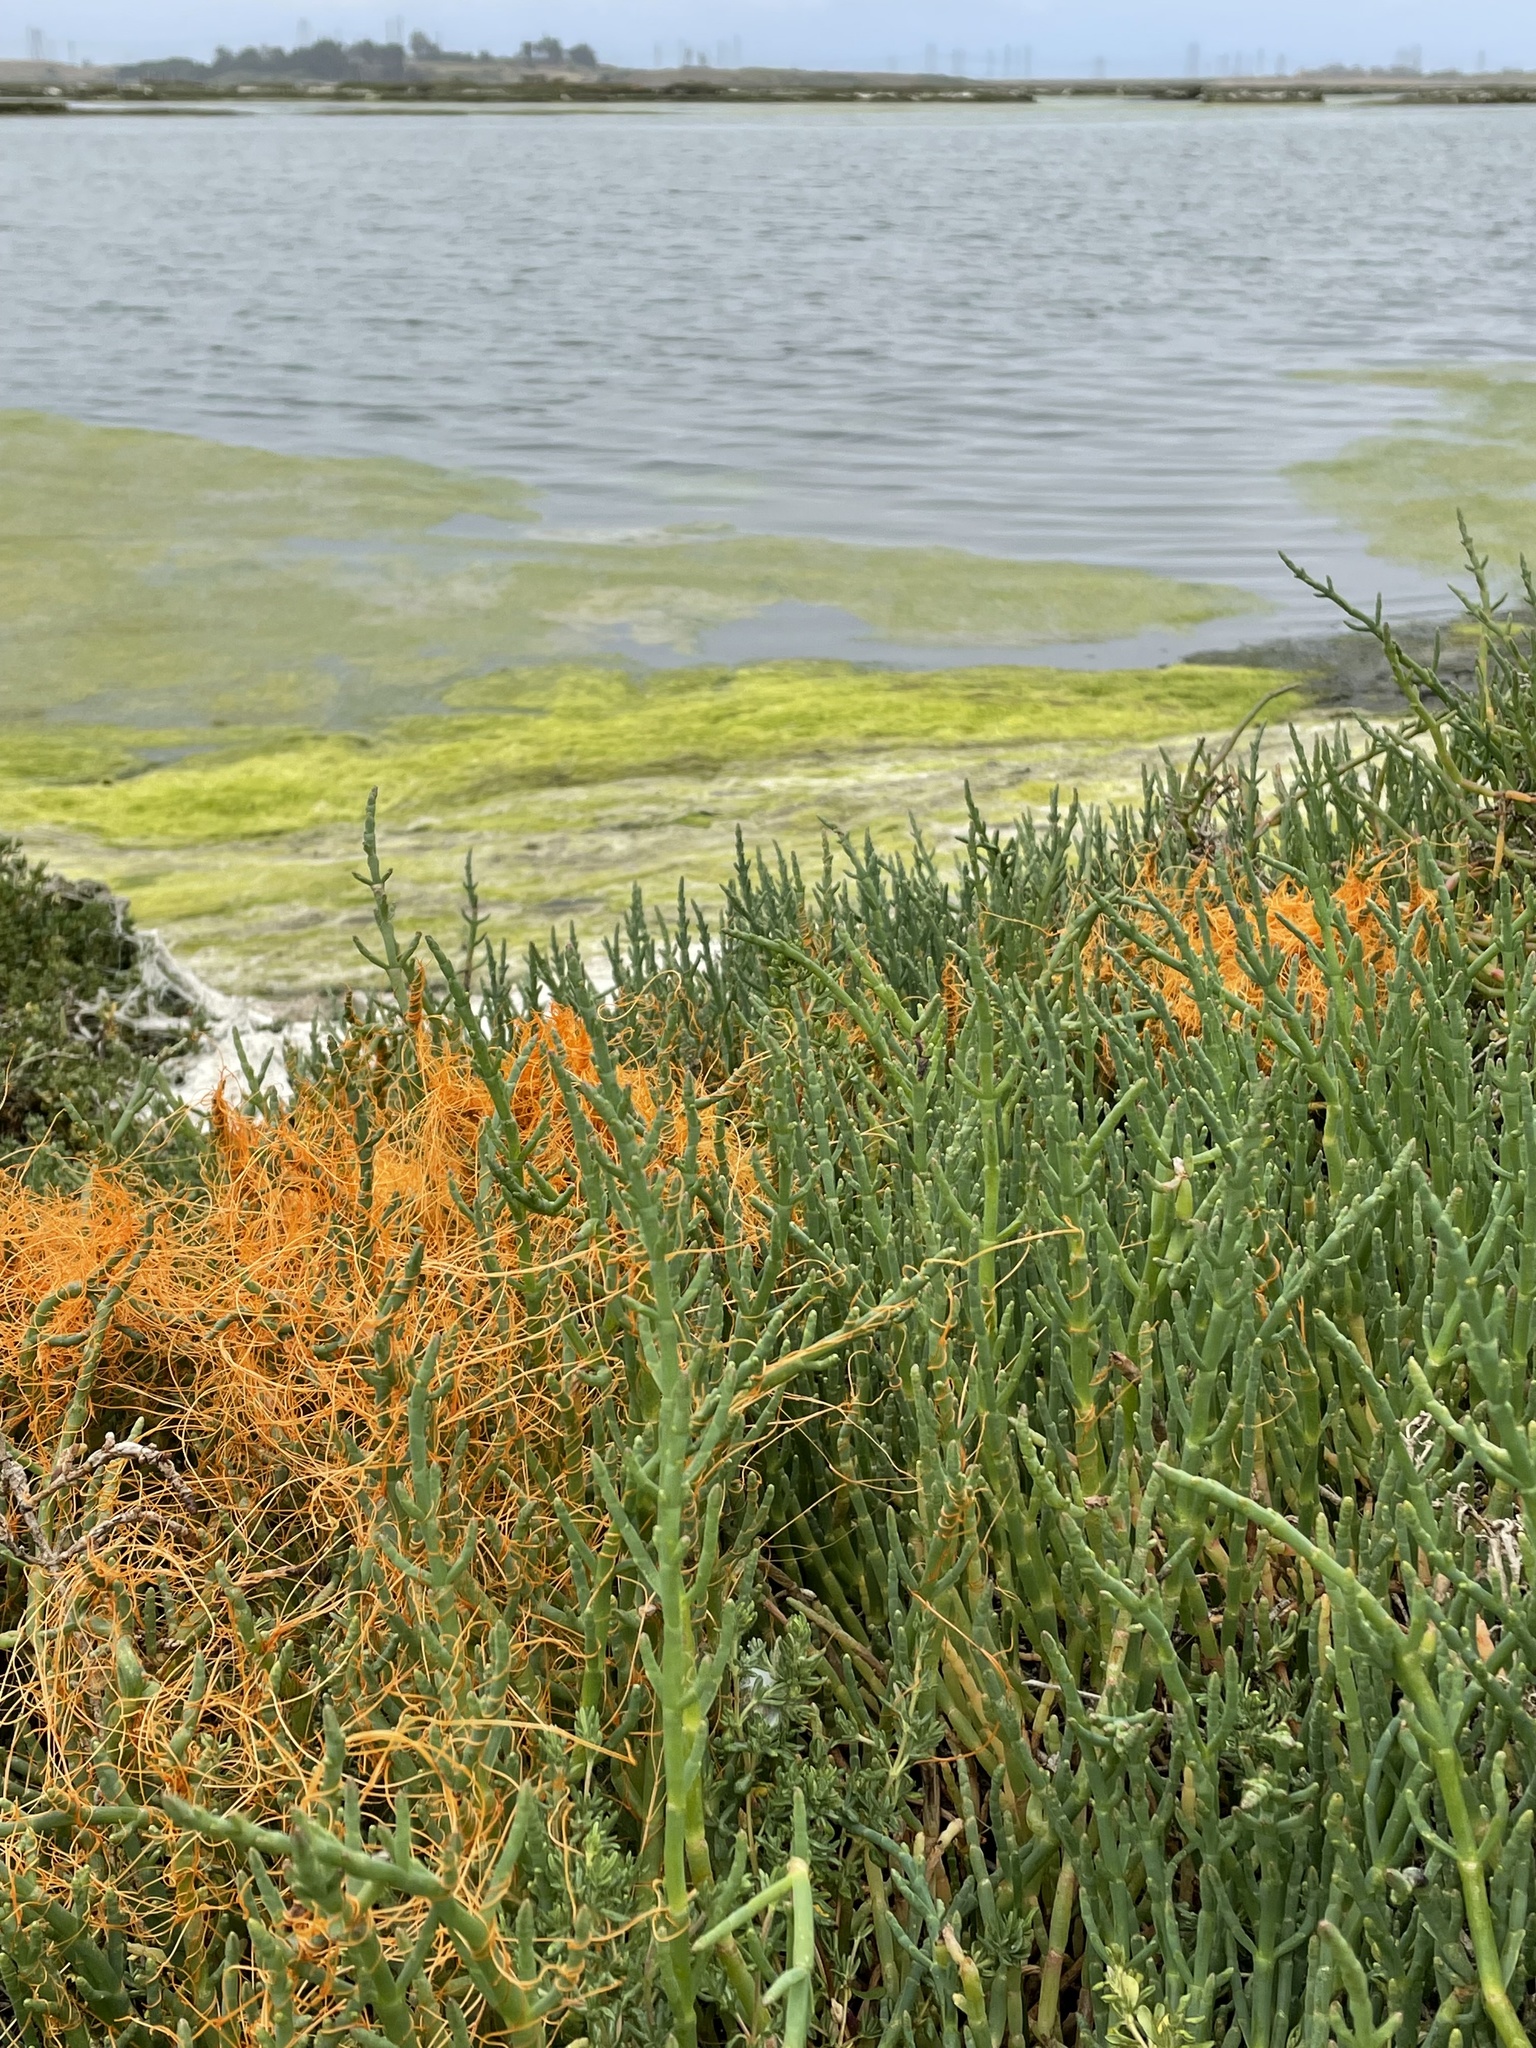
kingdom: Plantae
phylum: Tracheophyta
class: Magnoliopsida
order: Caryophyllales
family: Amaranthaceae
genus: Salicornia
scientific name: Salicornia pacifica
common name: Pacific glasswort
